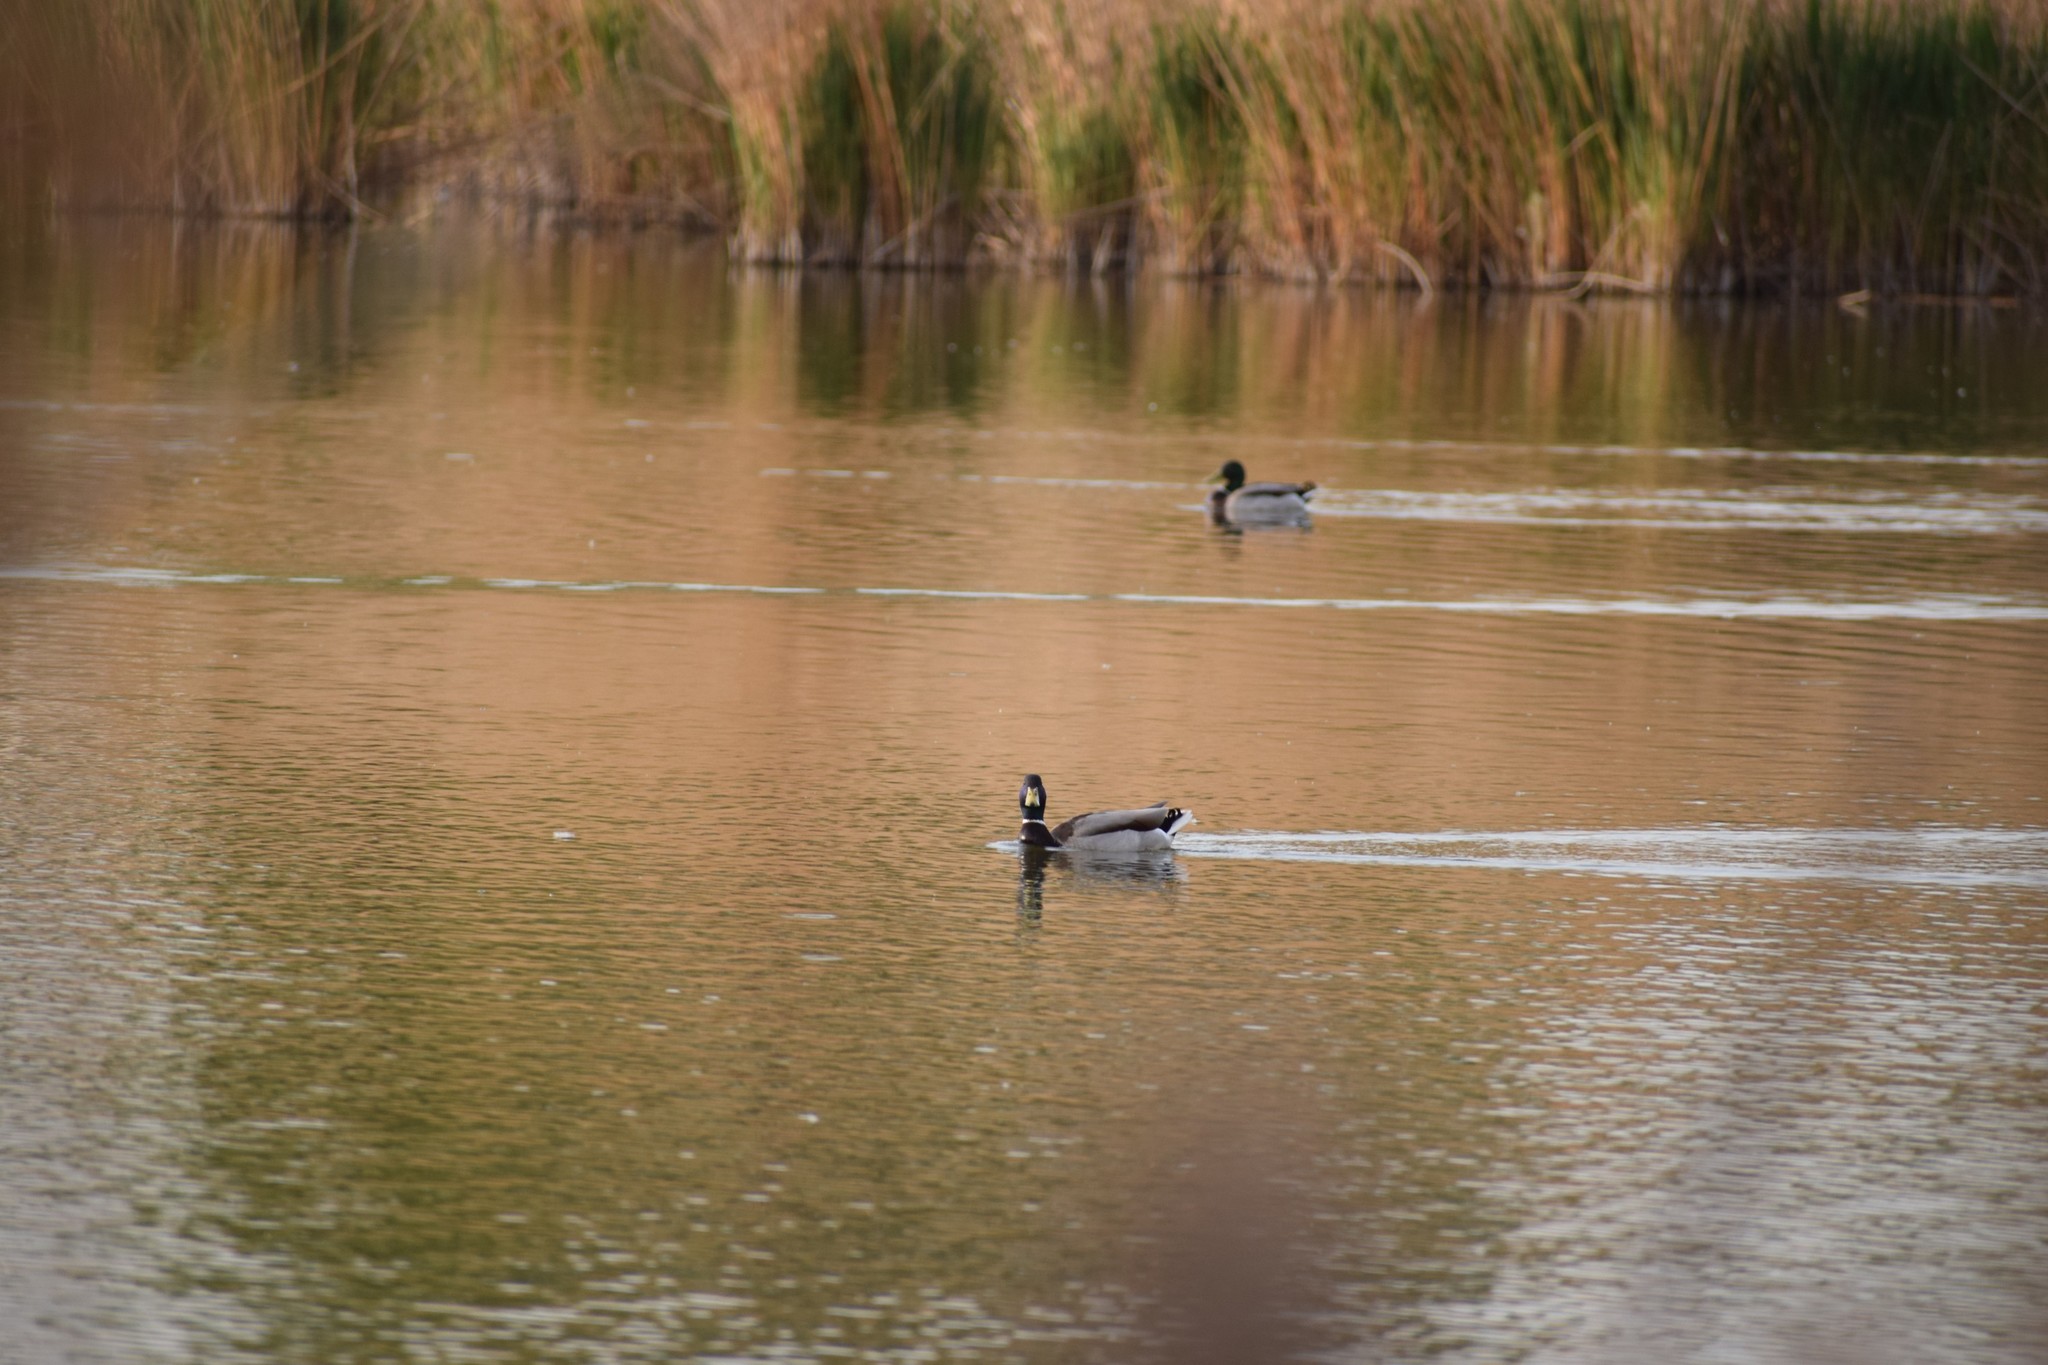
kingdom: Animalia
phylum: Chordata
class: Aves
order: Anseriformes
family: Anatidae
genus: Anas
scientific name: Anas platyrhynchos
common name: Mallard
